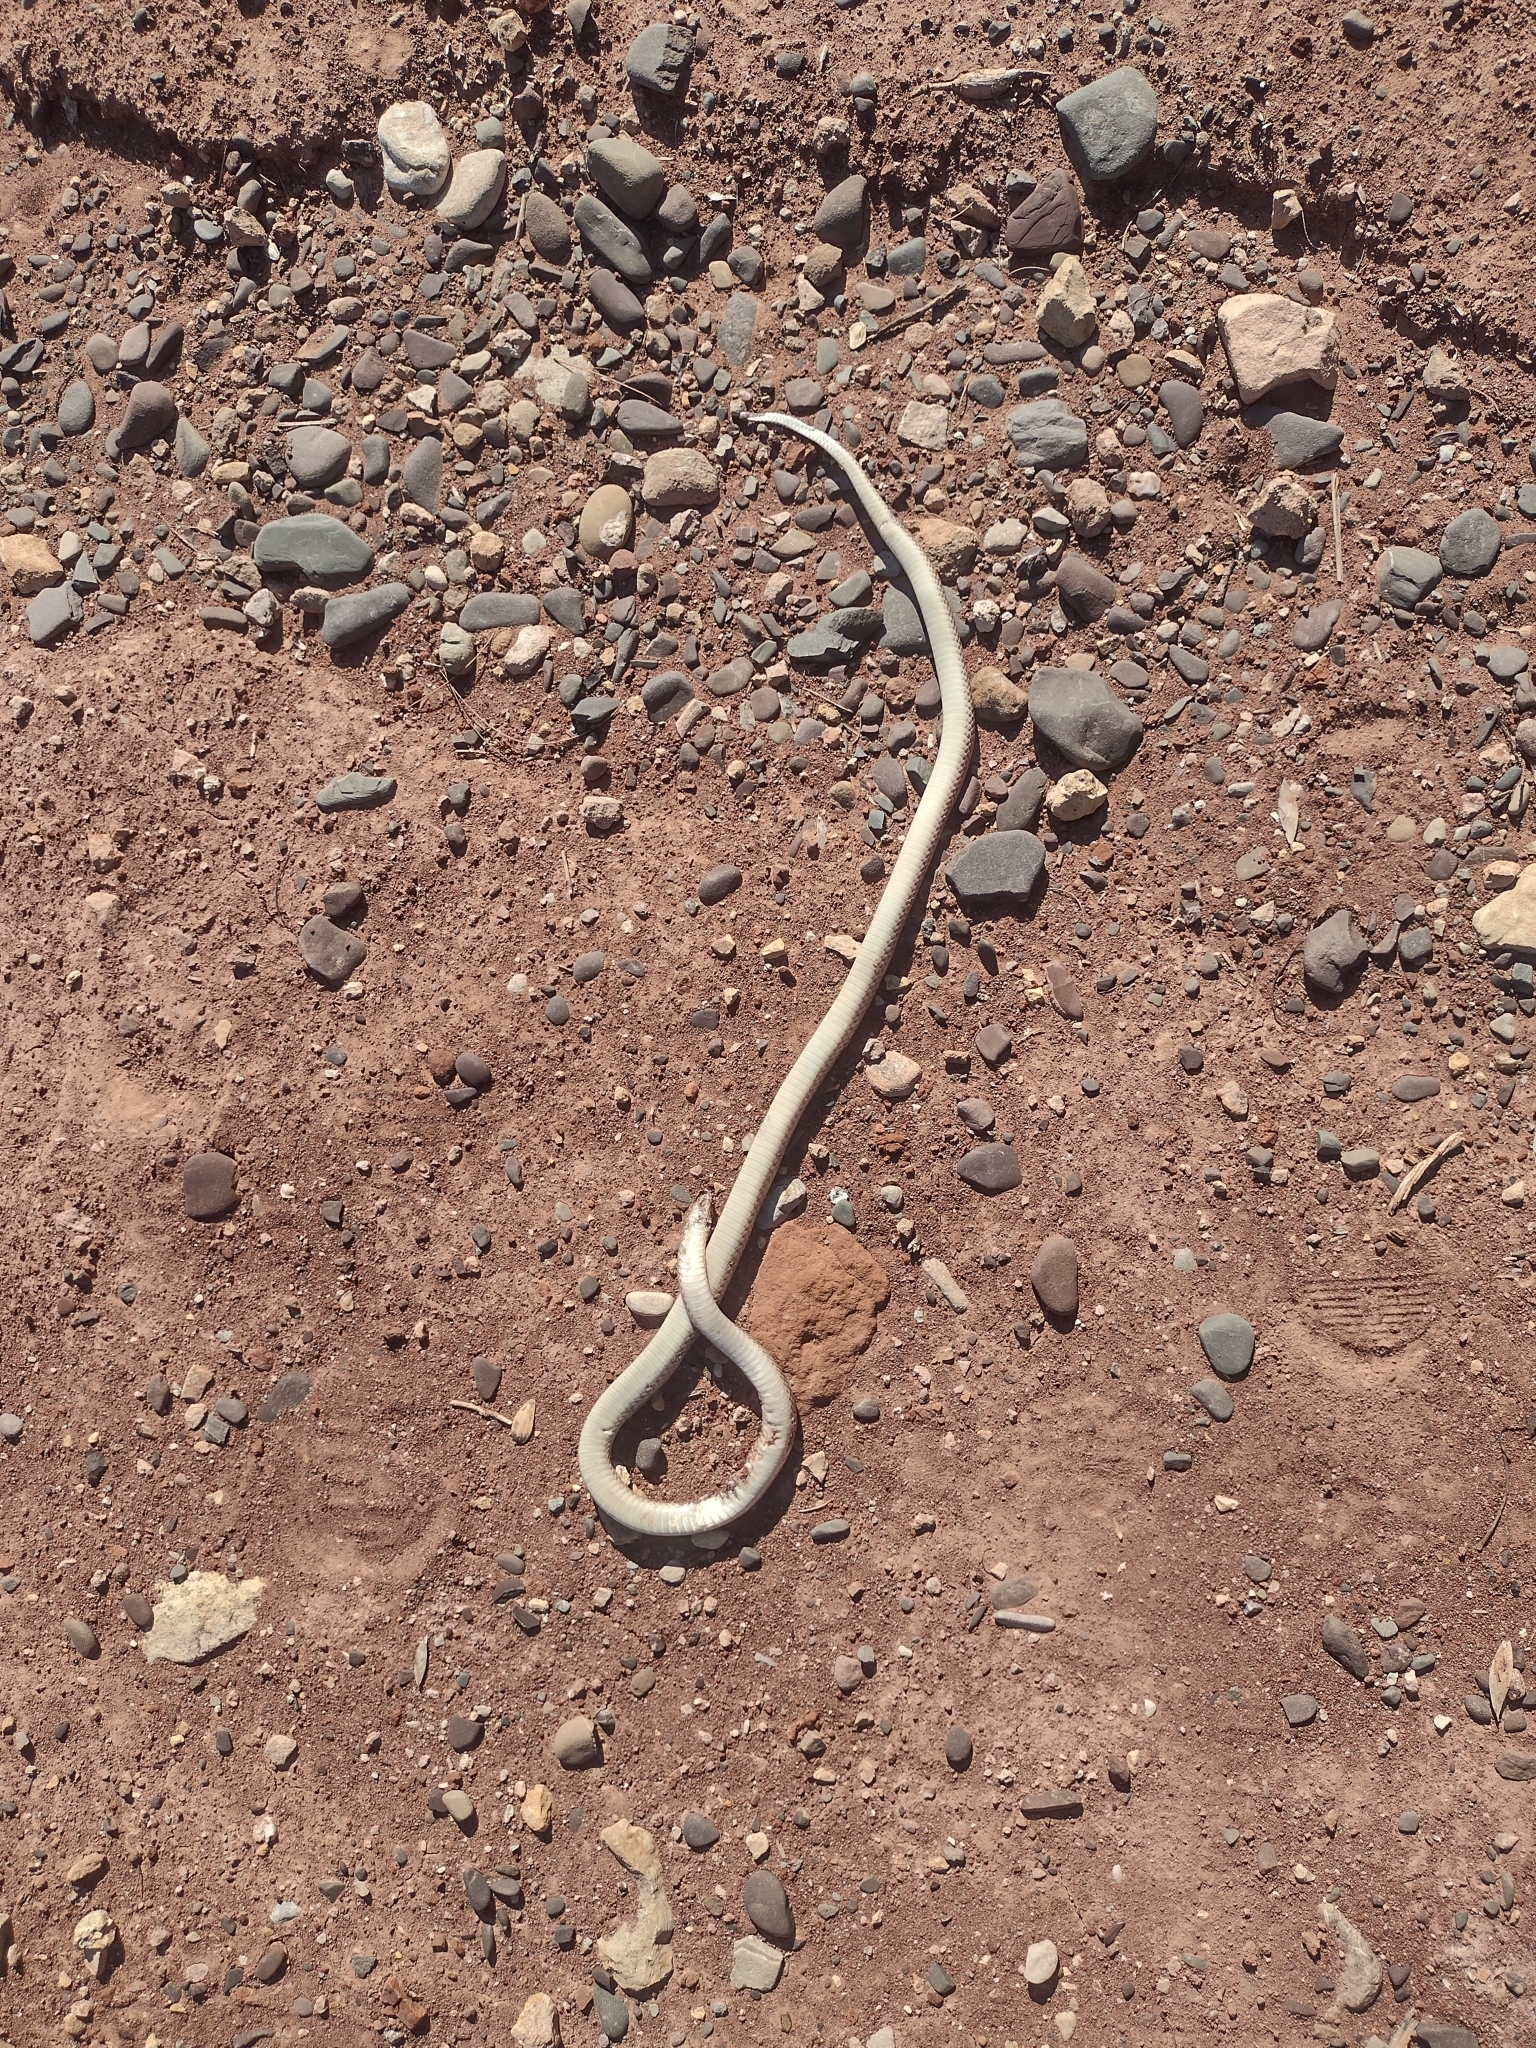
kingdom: Animalia
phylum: Chordata
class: Squamata
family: Colubridae
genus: Phimophis
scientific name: Phimophis vittatus
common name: Banded pampas snake
